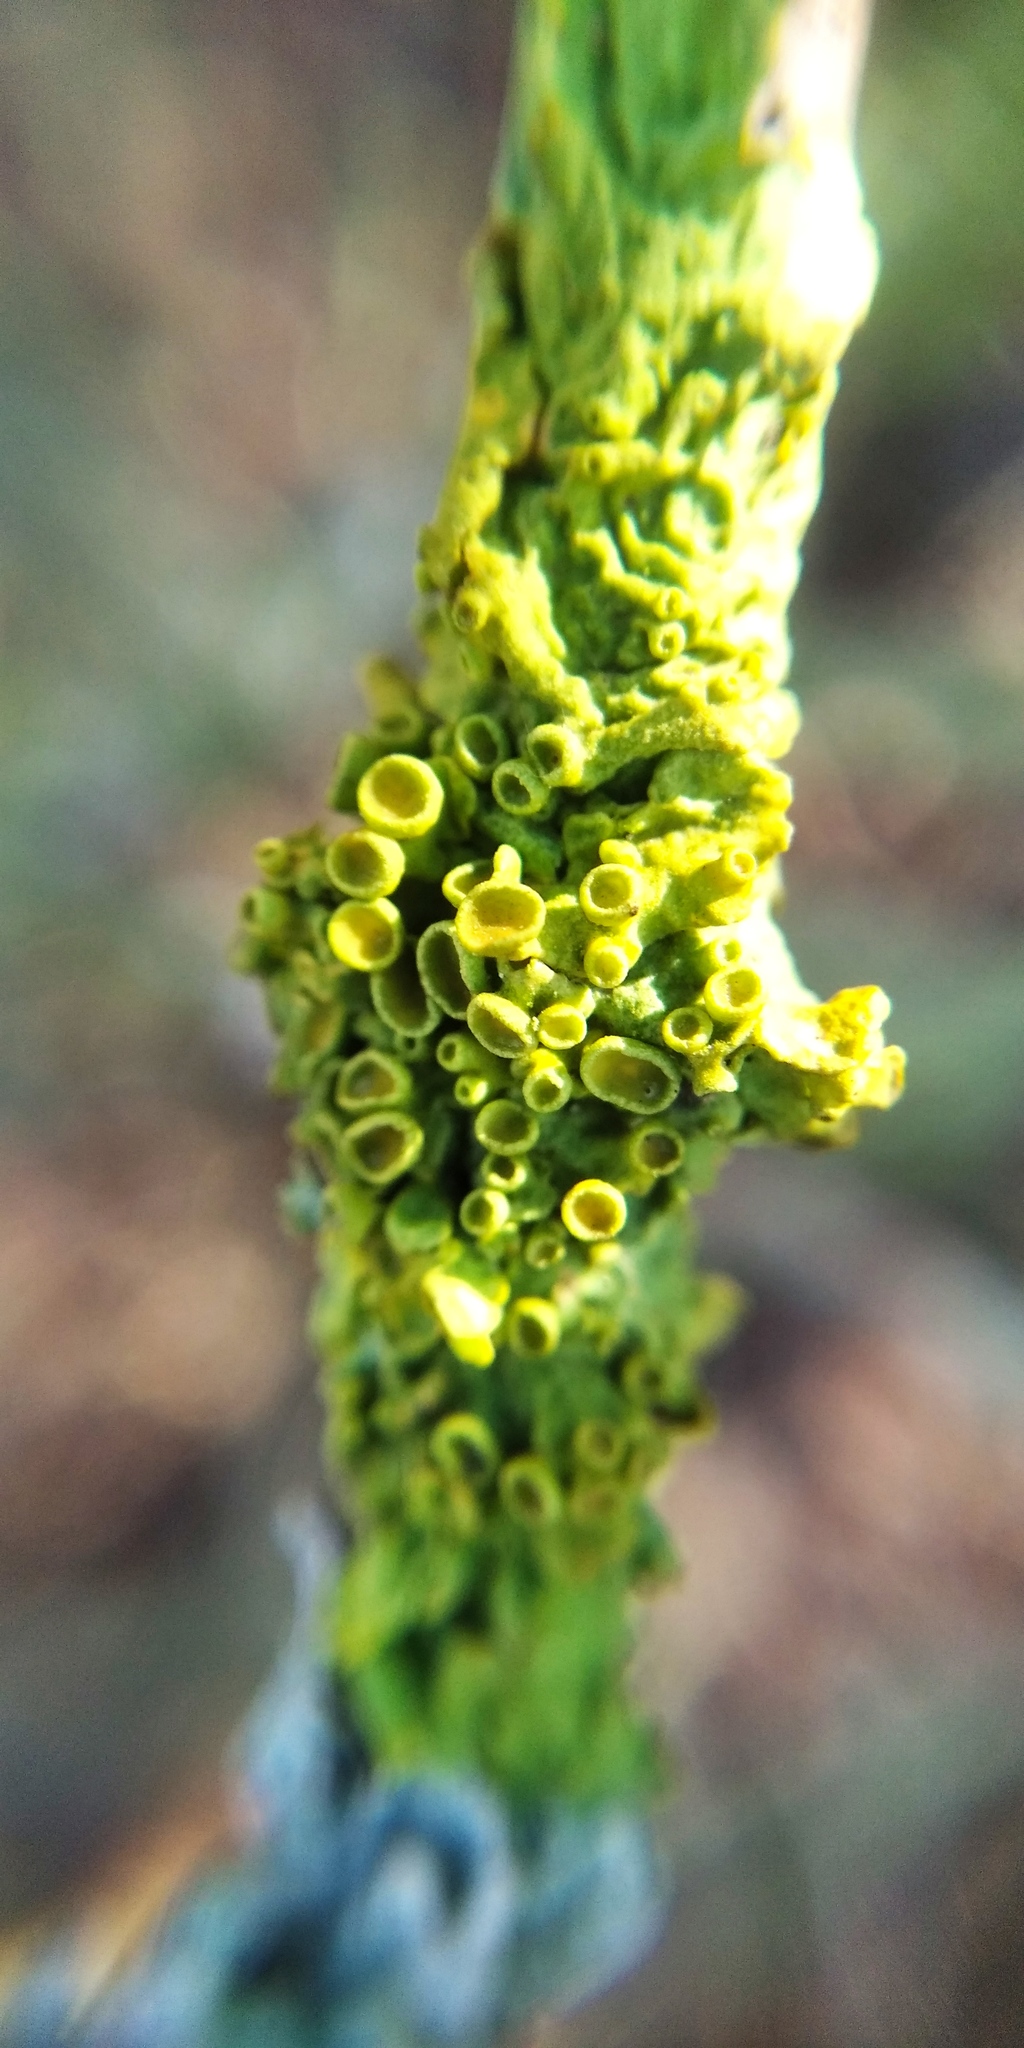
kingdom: Fungi
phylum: Ascomycota
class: Lecanoromycetes
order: Teloschistales
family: Teloschistaceae
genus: Xanthoria
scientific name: Xanthoria parietina
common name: Common orange lichen
